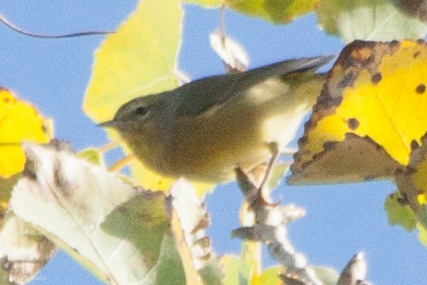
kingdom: Animalia
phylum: Chordata
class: Aves
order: Passeriformes
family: Parulidae
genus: Leiothlypis
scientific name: Leiothlypis celata
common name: Orange-crowned warbler
